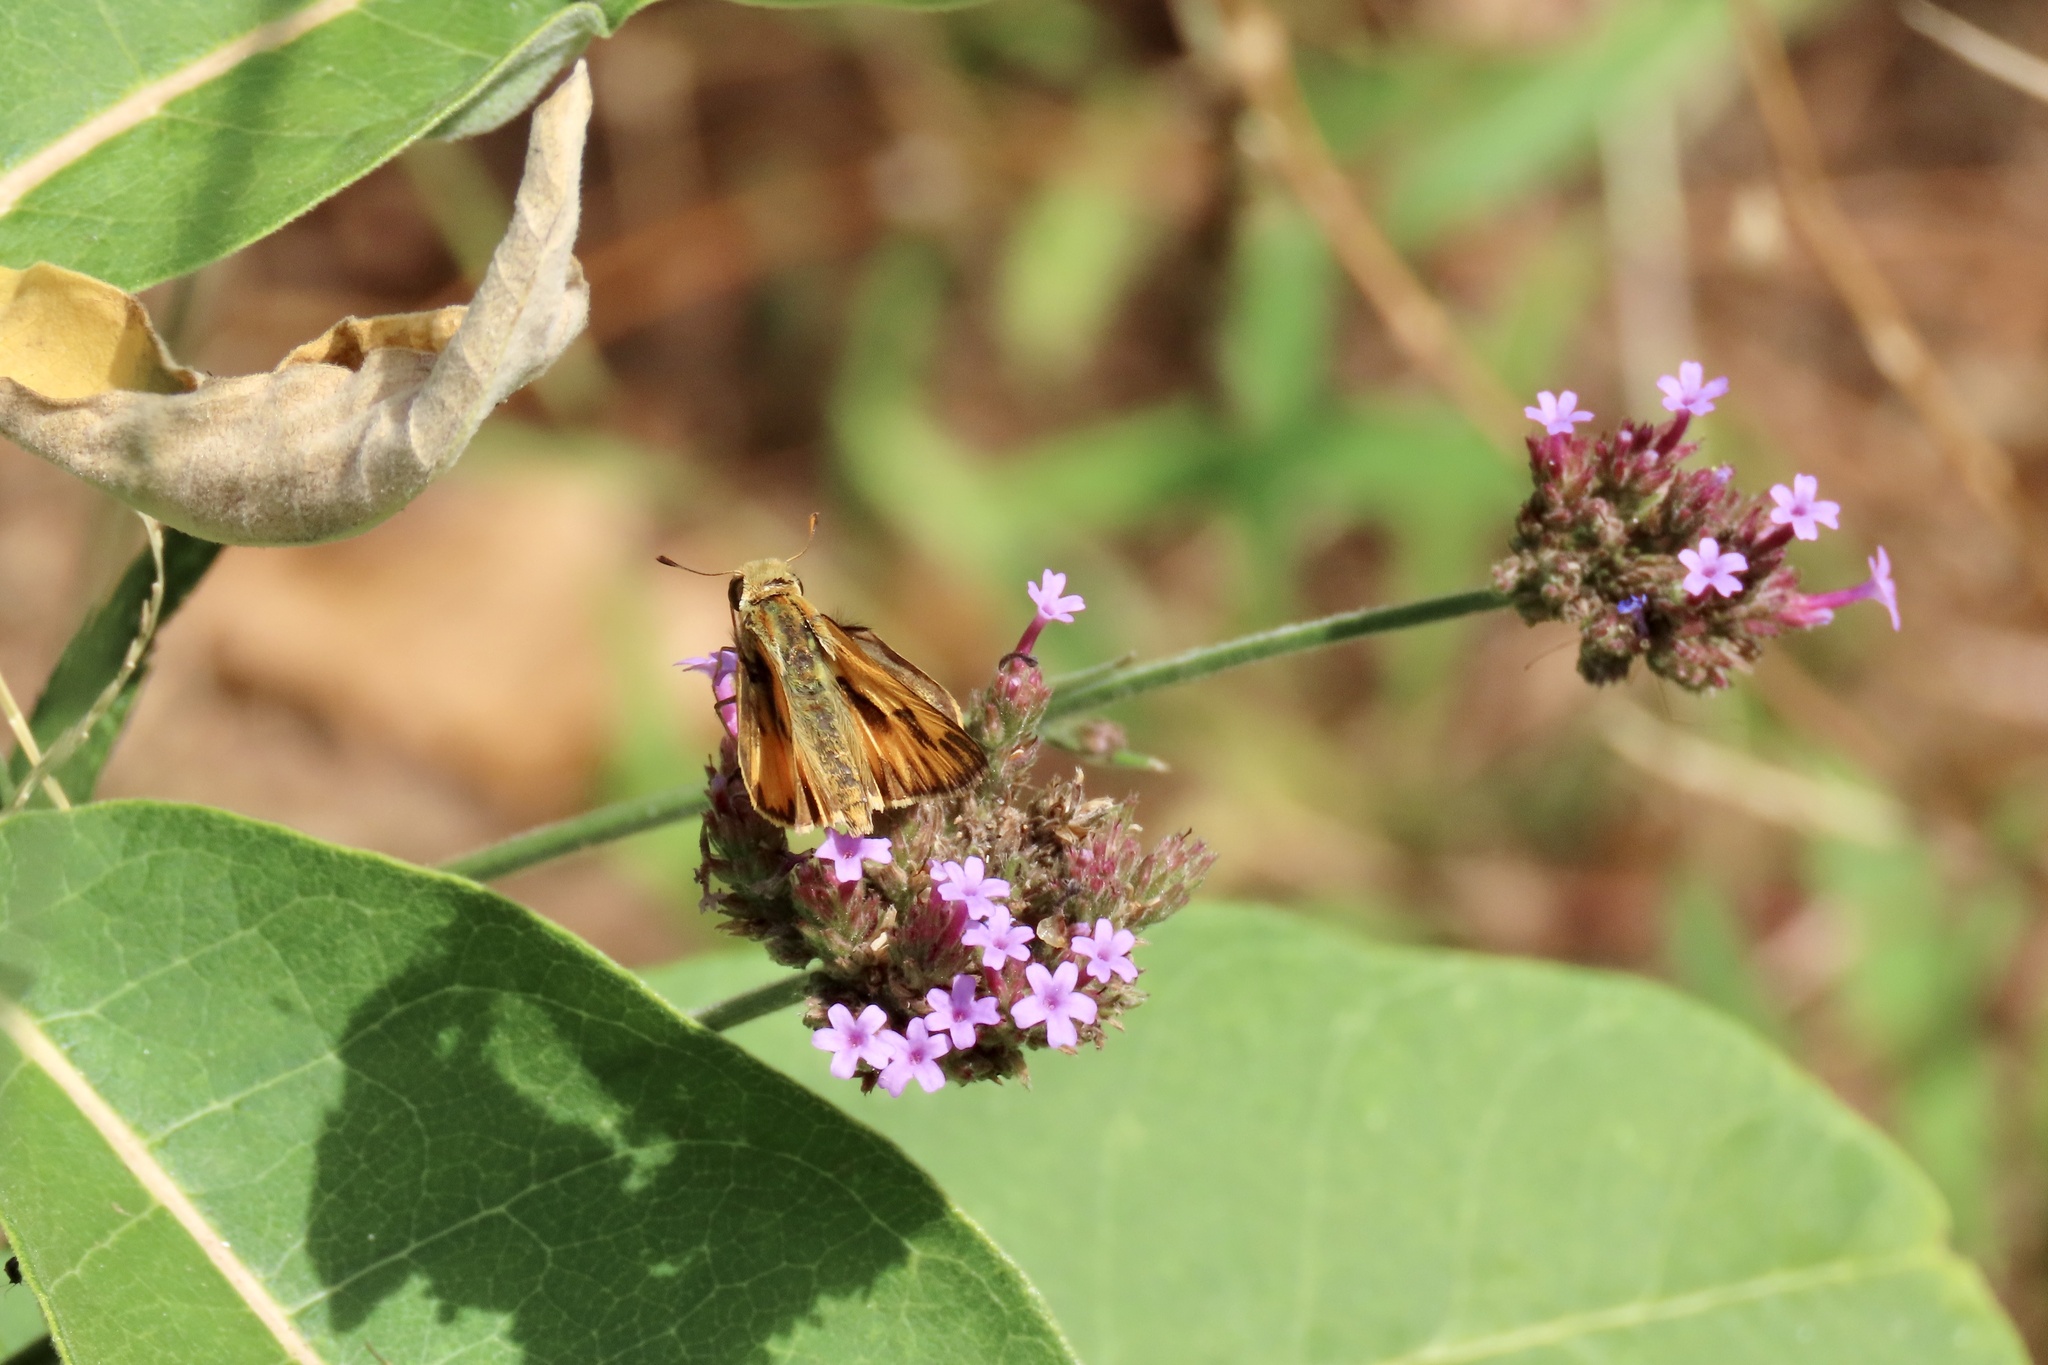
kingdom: Animalia
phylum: Arthropoda
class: Insecta
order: Lepidoptera
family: Hesperiidae
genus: Hylephila
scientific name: Hylephila phyleus
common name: Fiery skipper
